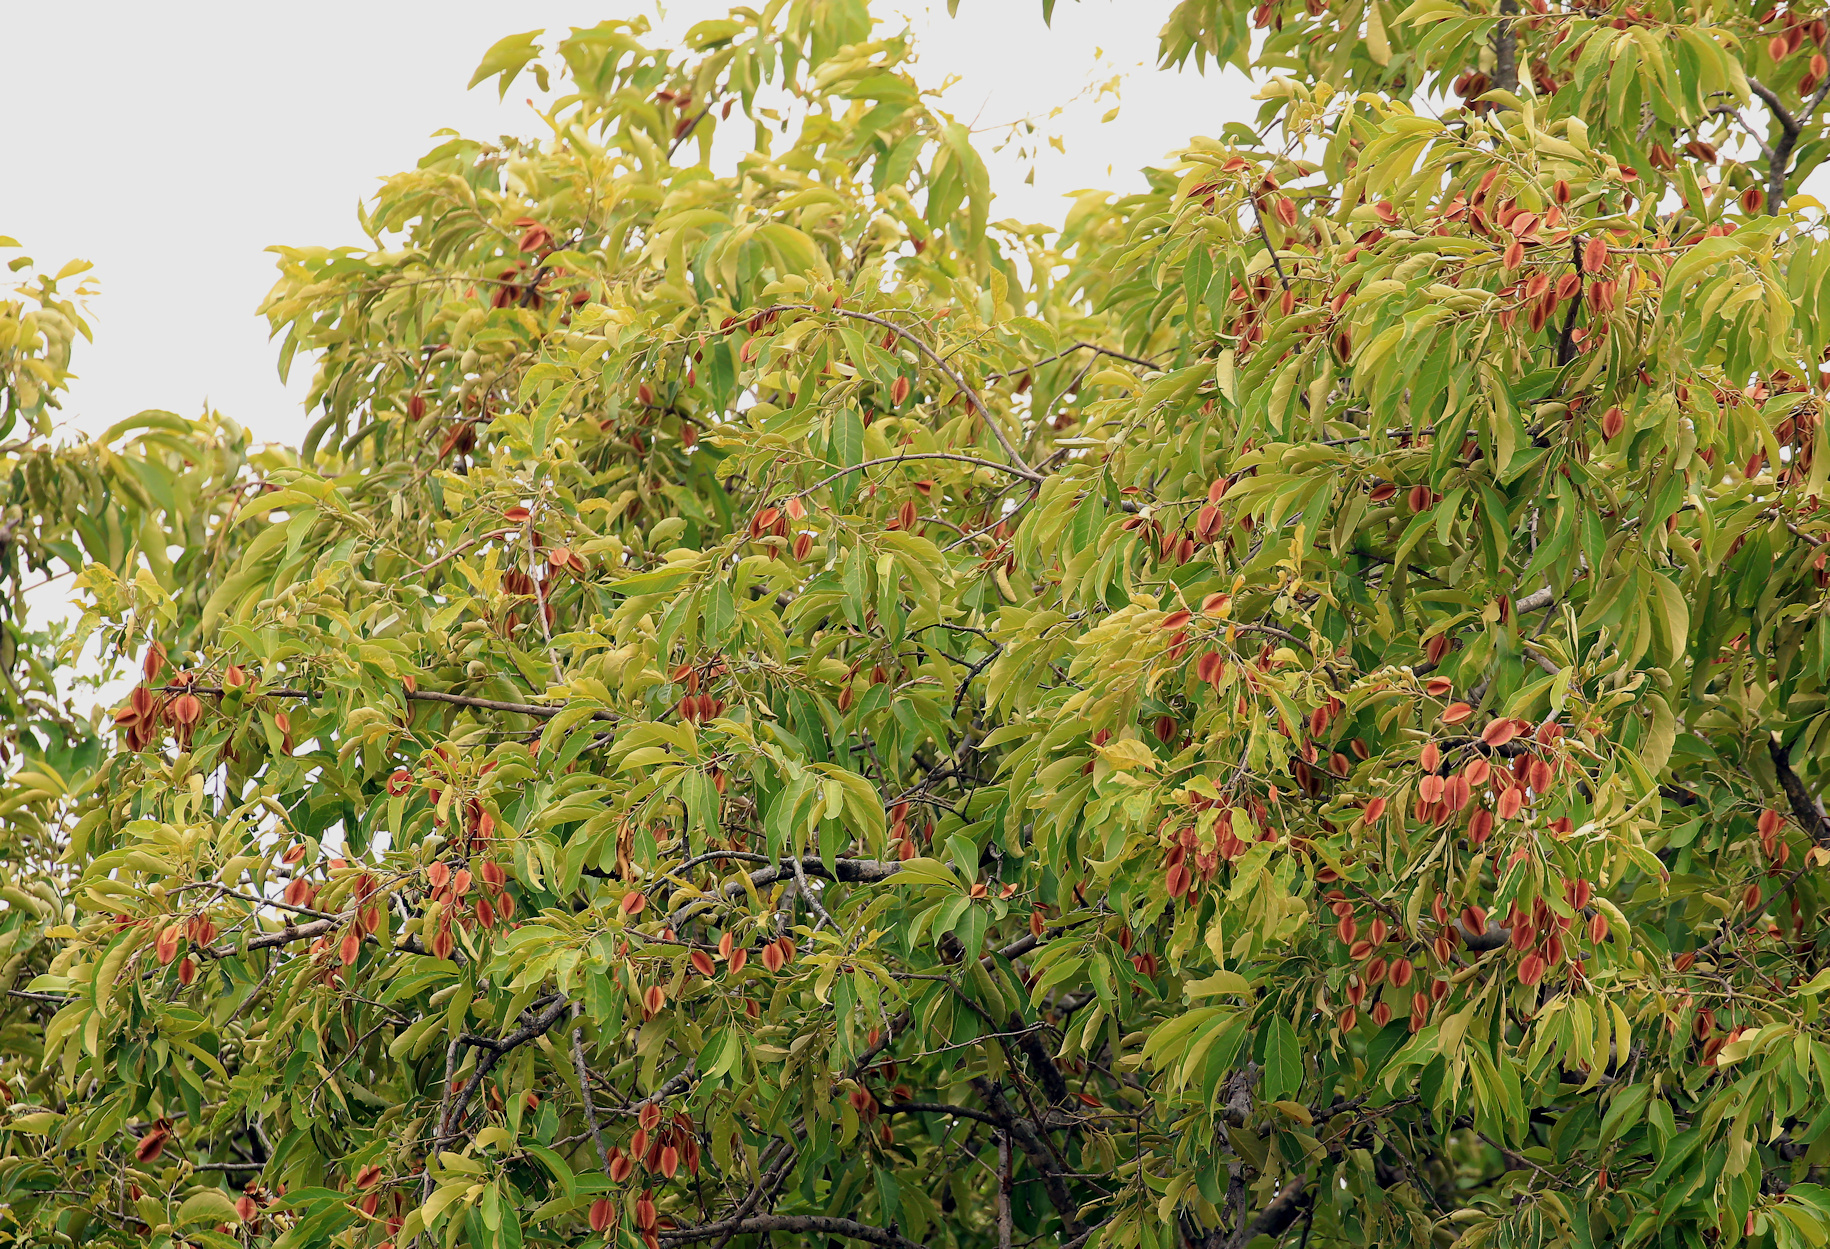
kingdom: Plantae
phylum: Tracheophyta
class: Magnoliopsida
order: Myrtales
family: Combretaceae
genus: Combretum
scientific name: Combretum collinum
